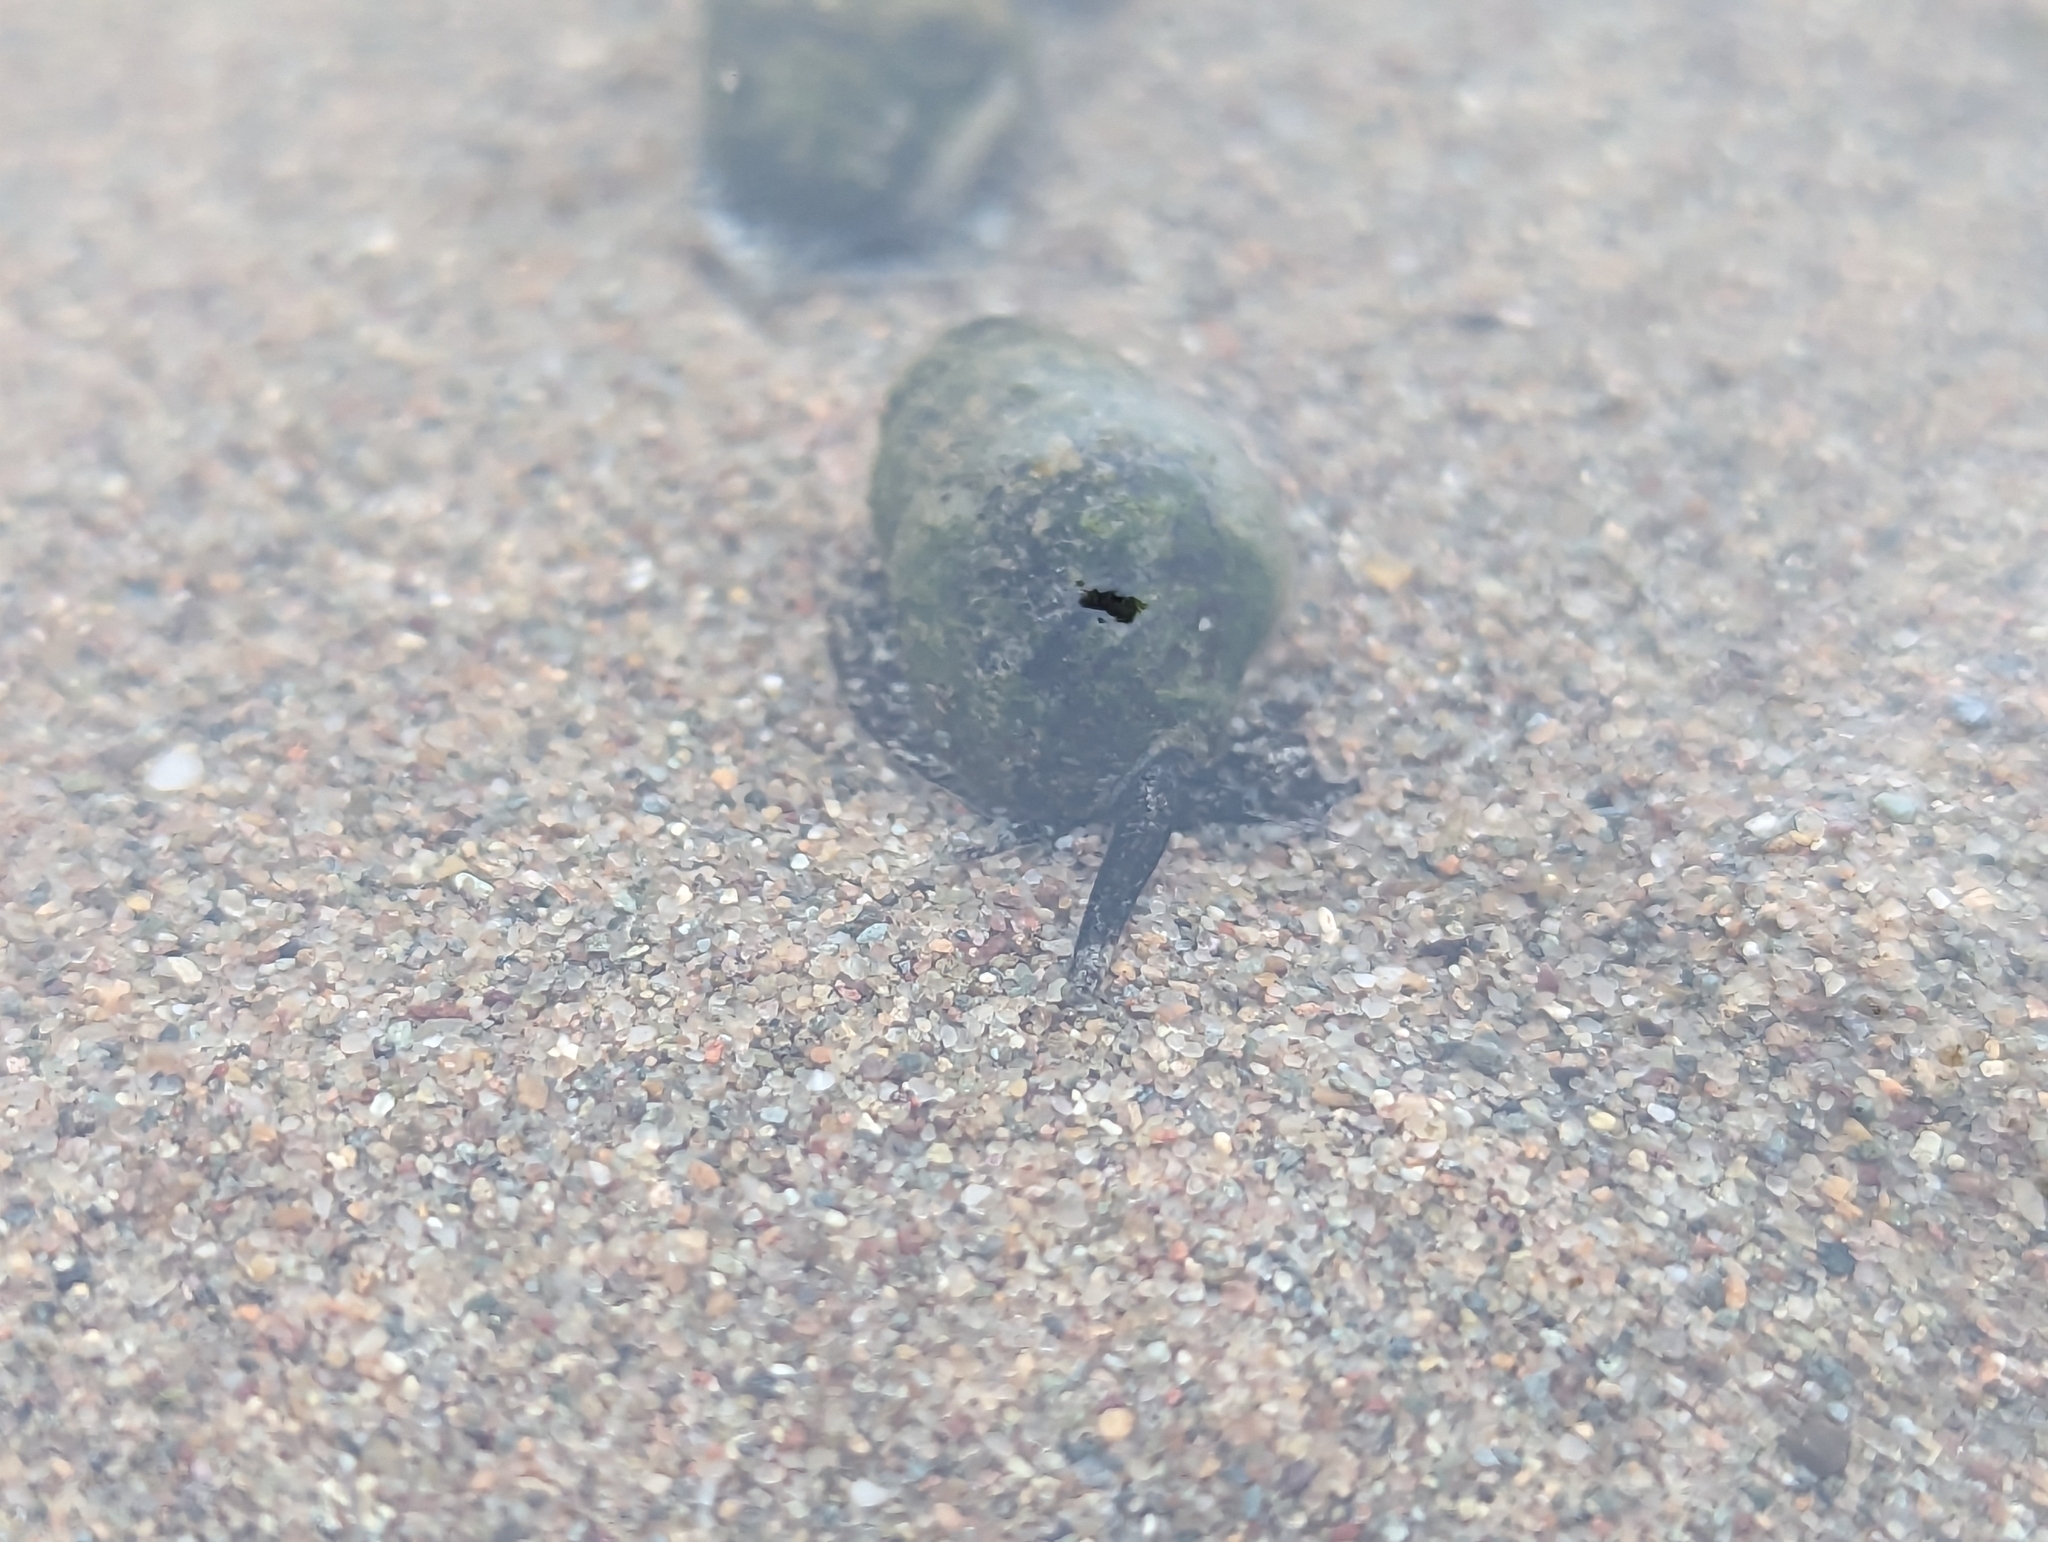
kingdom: Animalia
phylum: Mollusca
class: Gastropoda
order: Neogastropoda
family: Nassariidae
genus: Ilyanassa
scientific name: Ilyanassa obsoleta
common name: Eastern mudsnail
